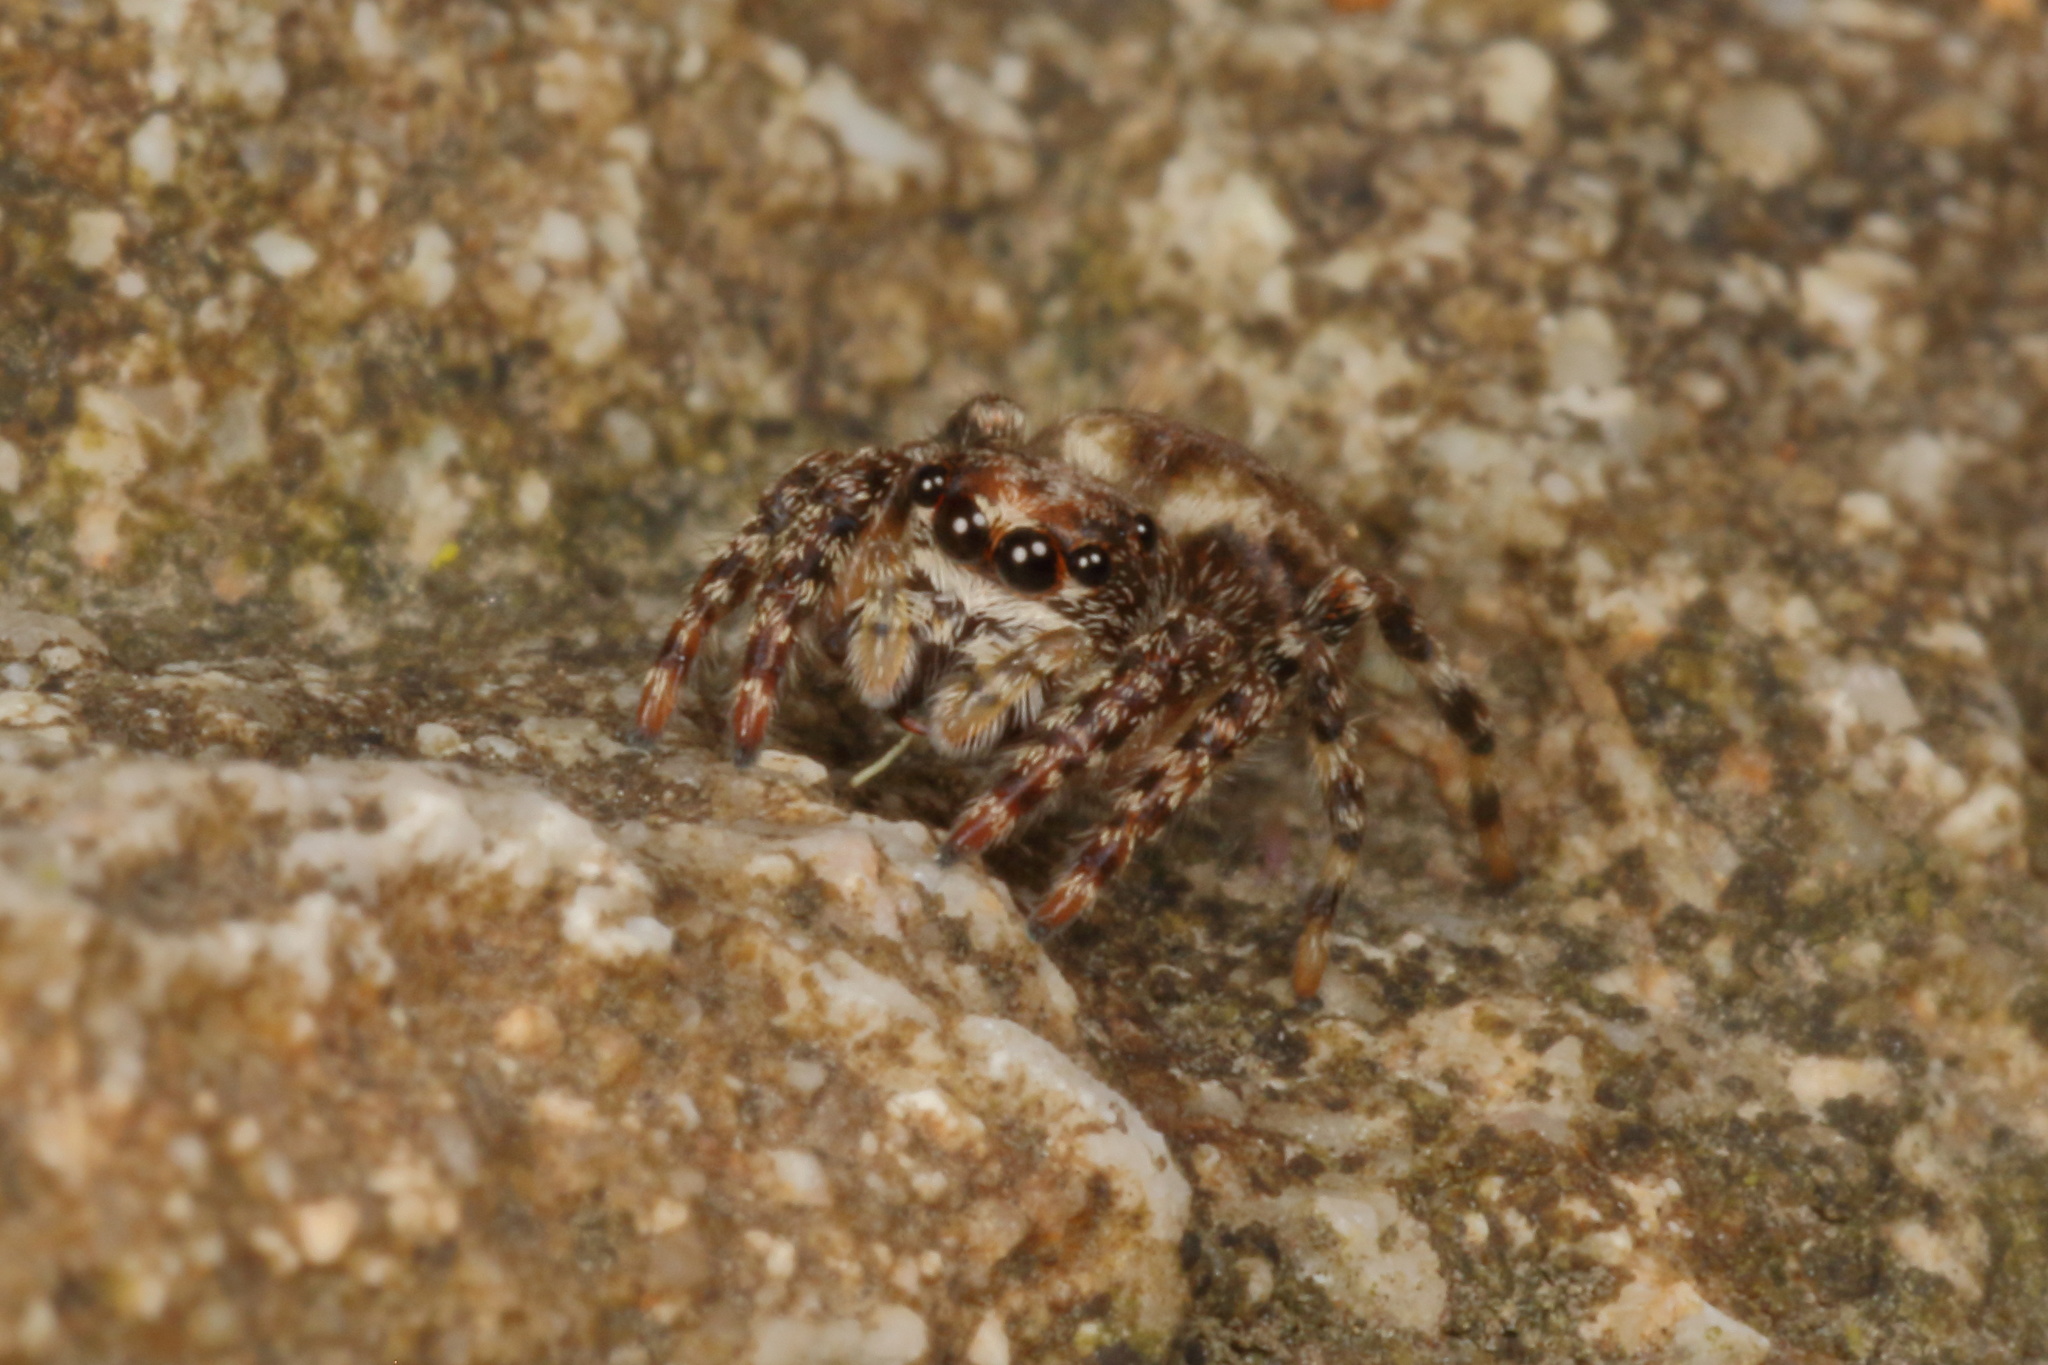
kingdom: Animalia
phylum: Arthropoda
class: Arachnida
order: Araneae
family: Salticidae
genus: Hinewaia
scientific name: Hinewaia embolica
